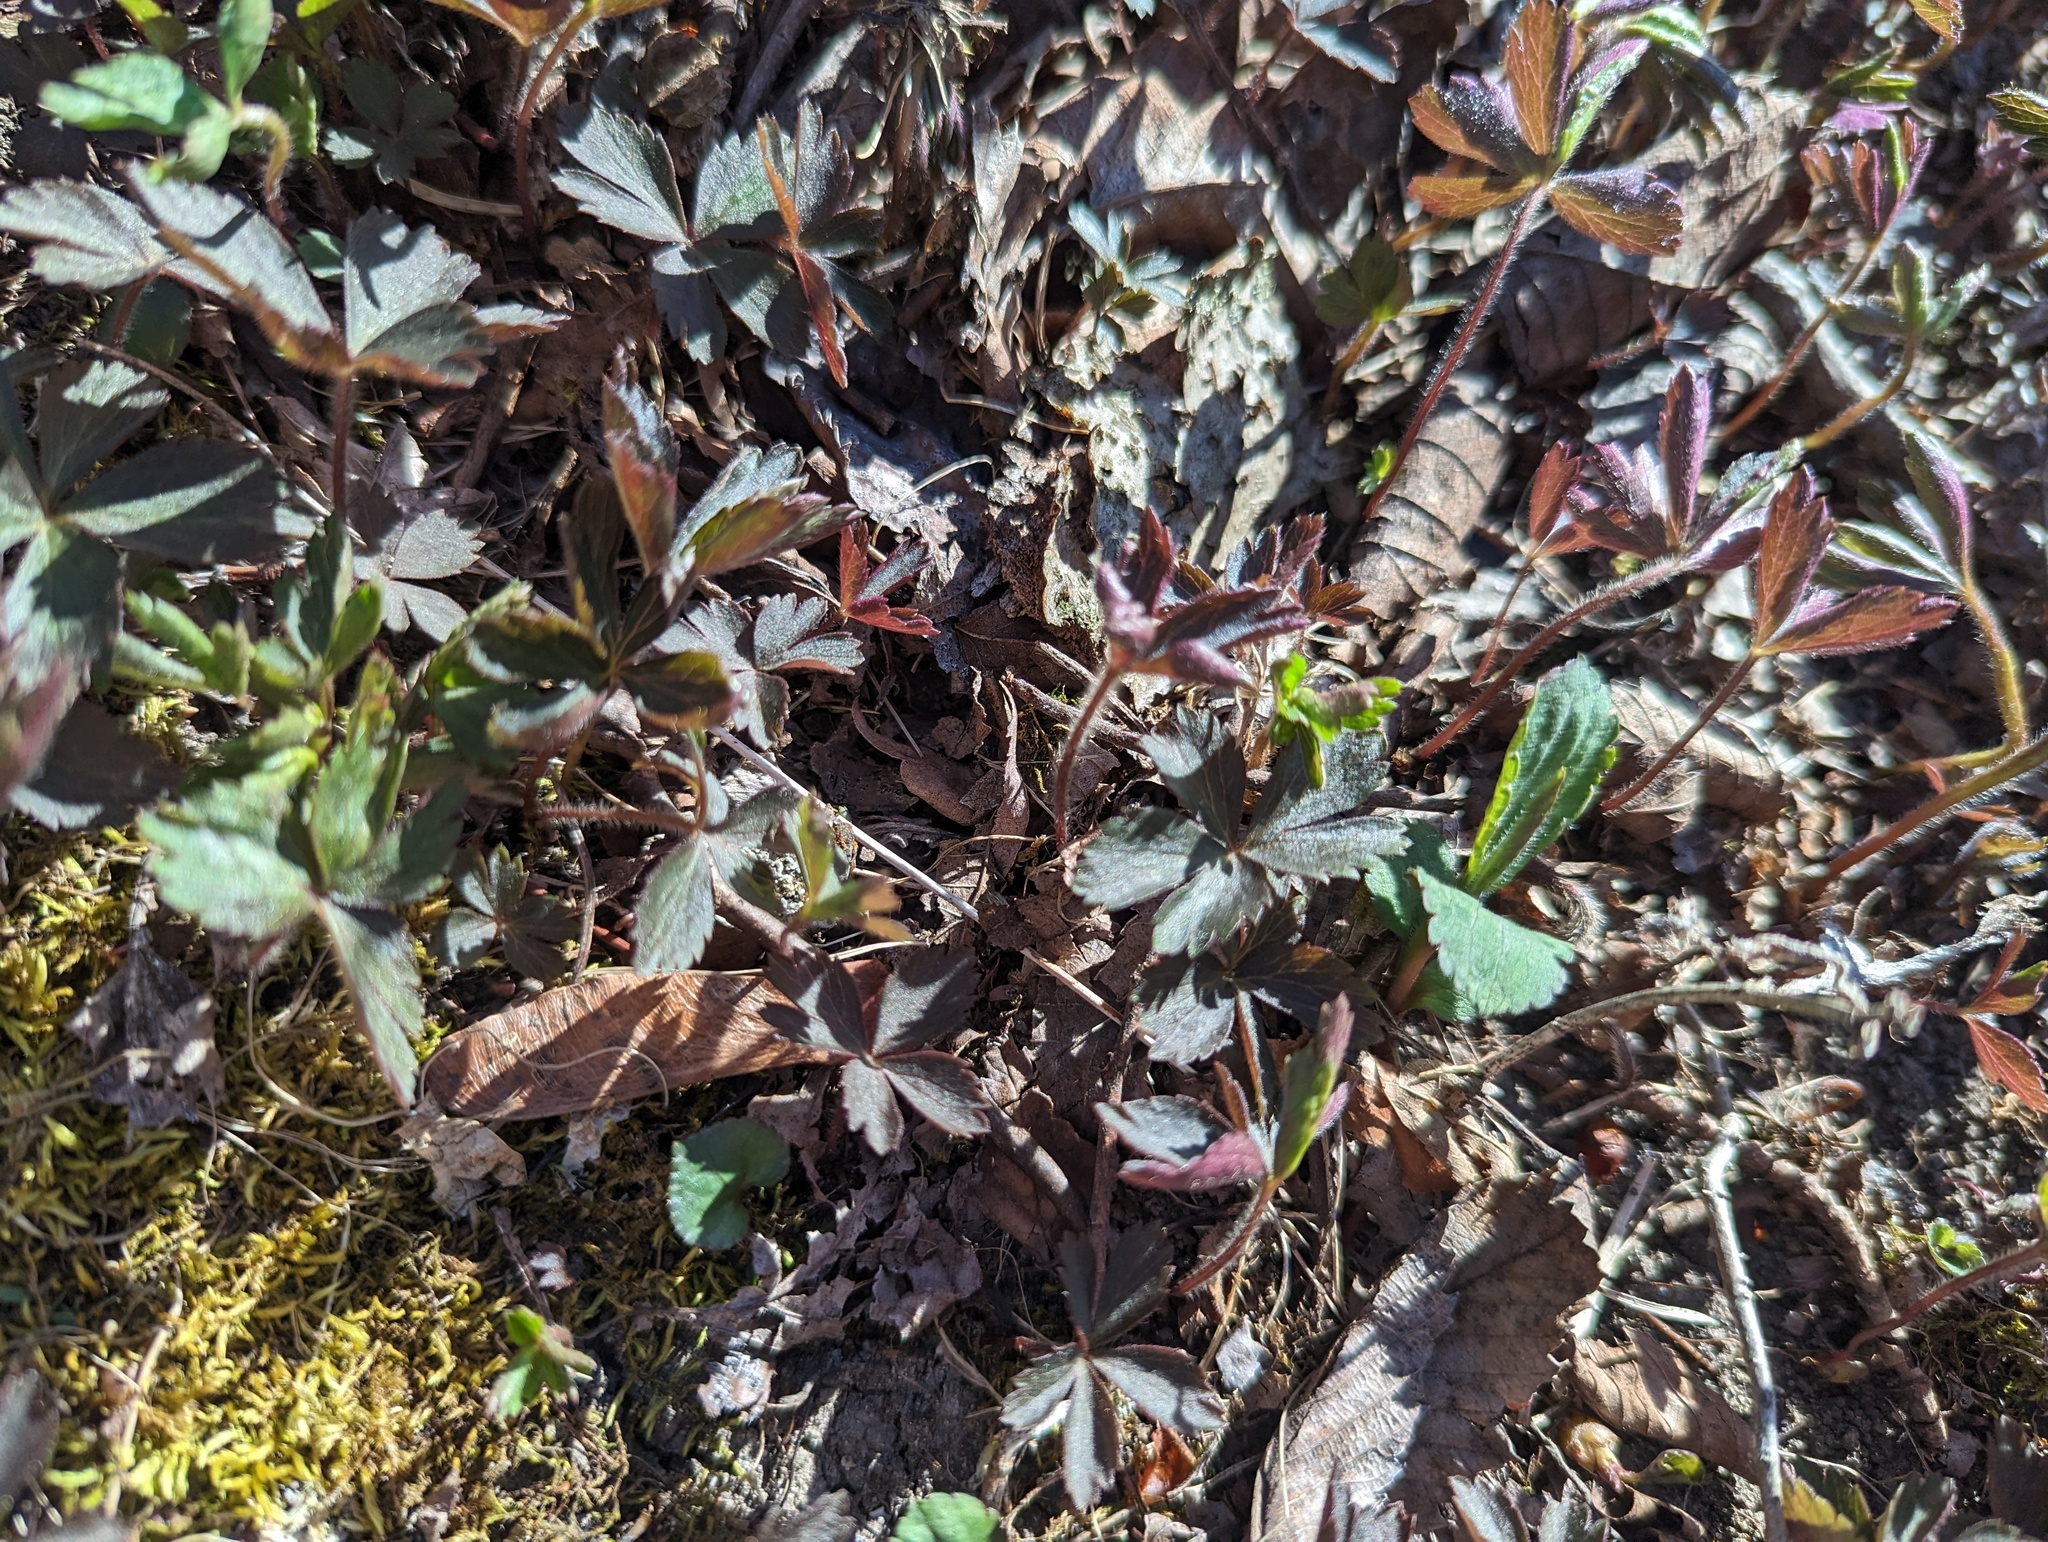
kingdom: Plantae
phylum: Tracheophyta
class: Magnoliopsida
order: Ranunculales
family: Ranunculaceae
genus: Anemone
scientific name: Anemone quinquefolia
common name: Wood anemone
